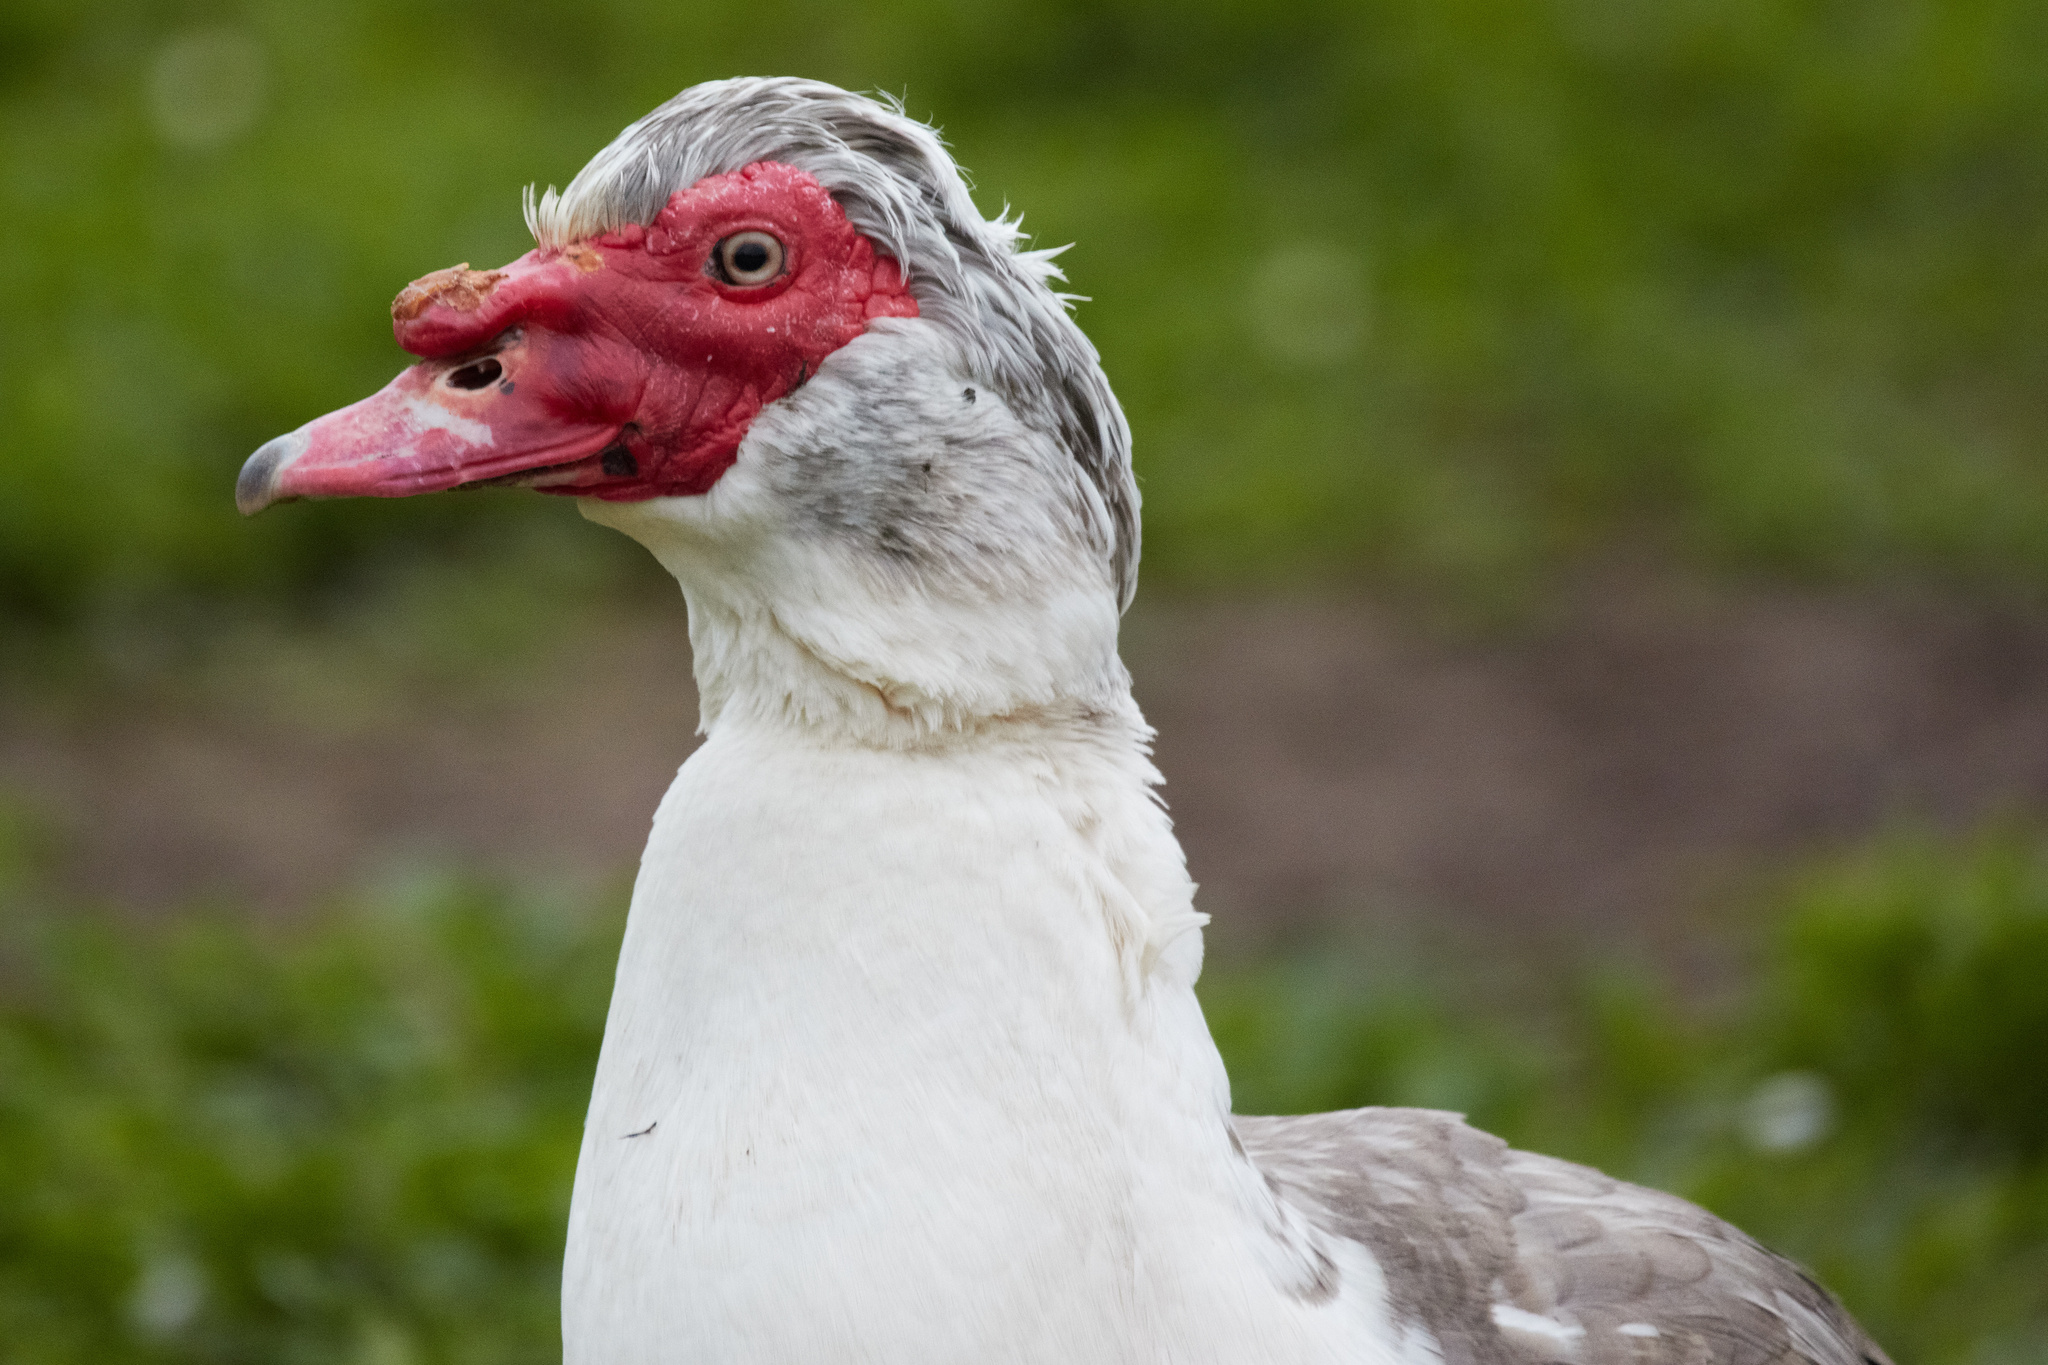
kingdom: Animalia
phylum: Chordata
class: Aves
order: Anseriformes
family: Anatidae
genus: Cairina
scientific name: Cairina moschata
